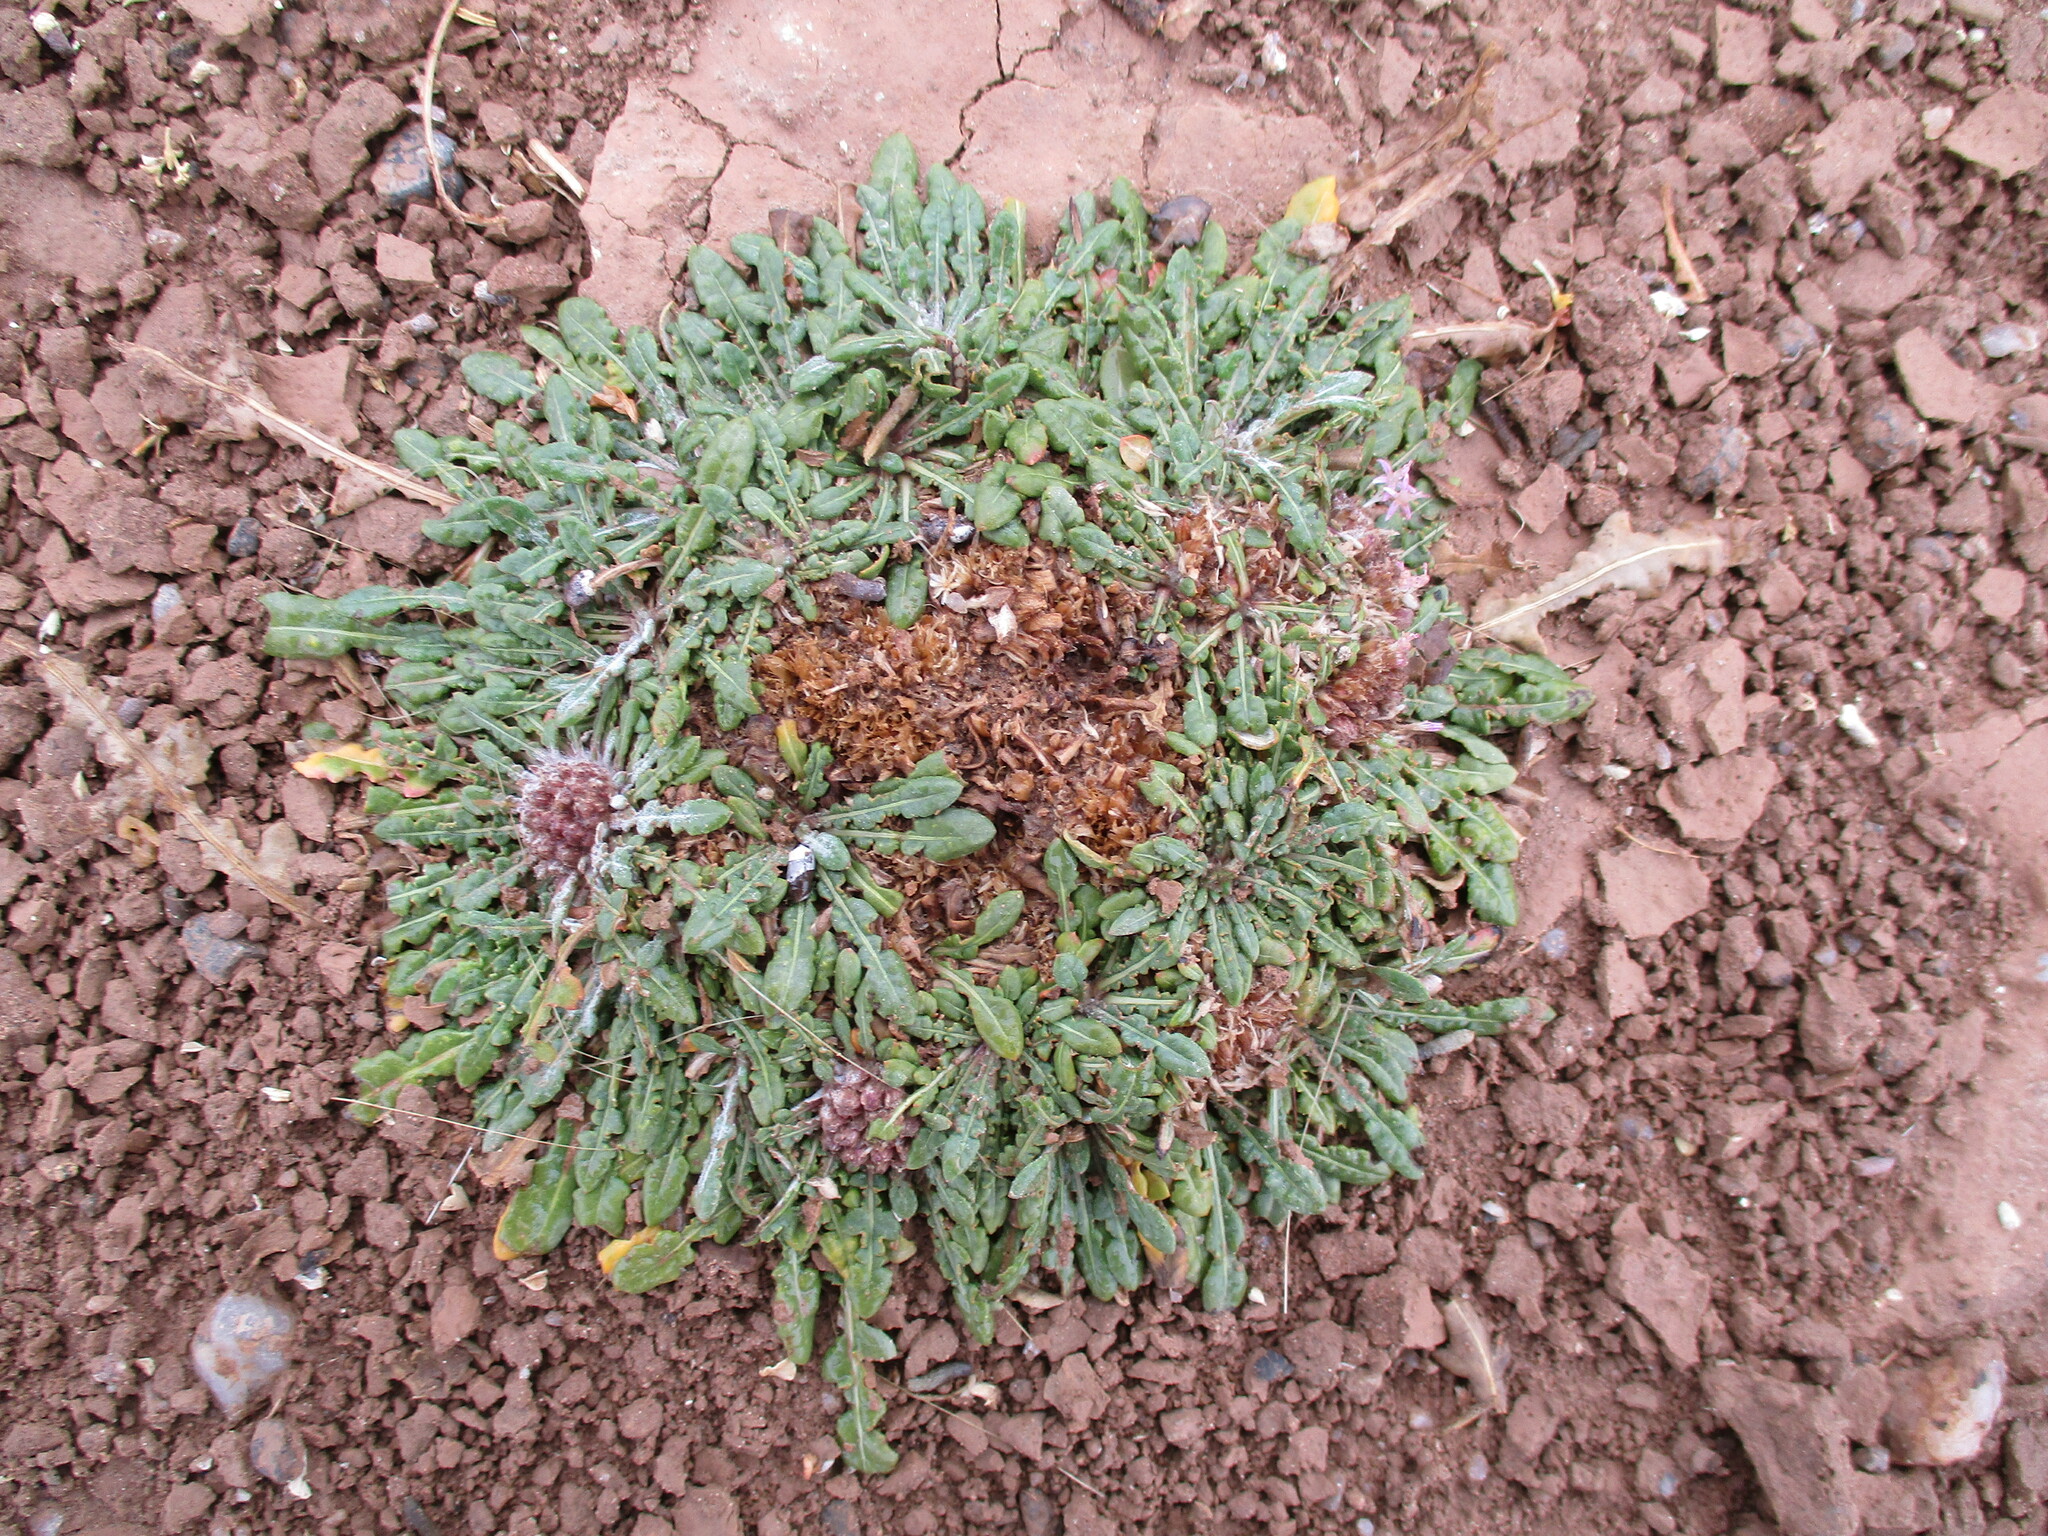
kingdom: Plantae
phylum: Tracheophyta
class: Magnoliopsida
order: Asterales
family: Asteraceae
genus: Platycarphella
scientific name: Platycarphella carlinoides
